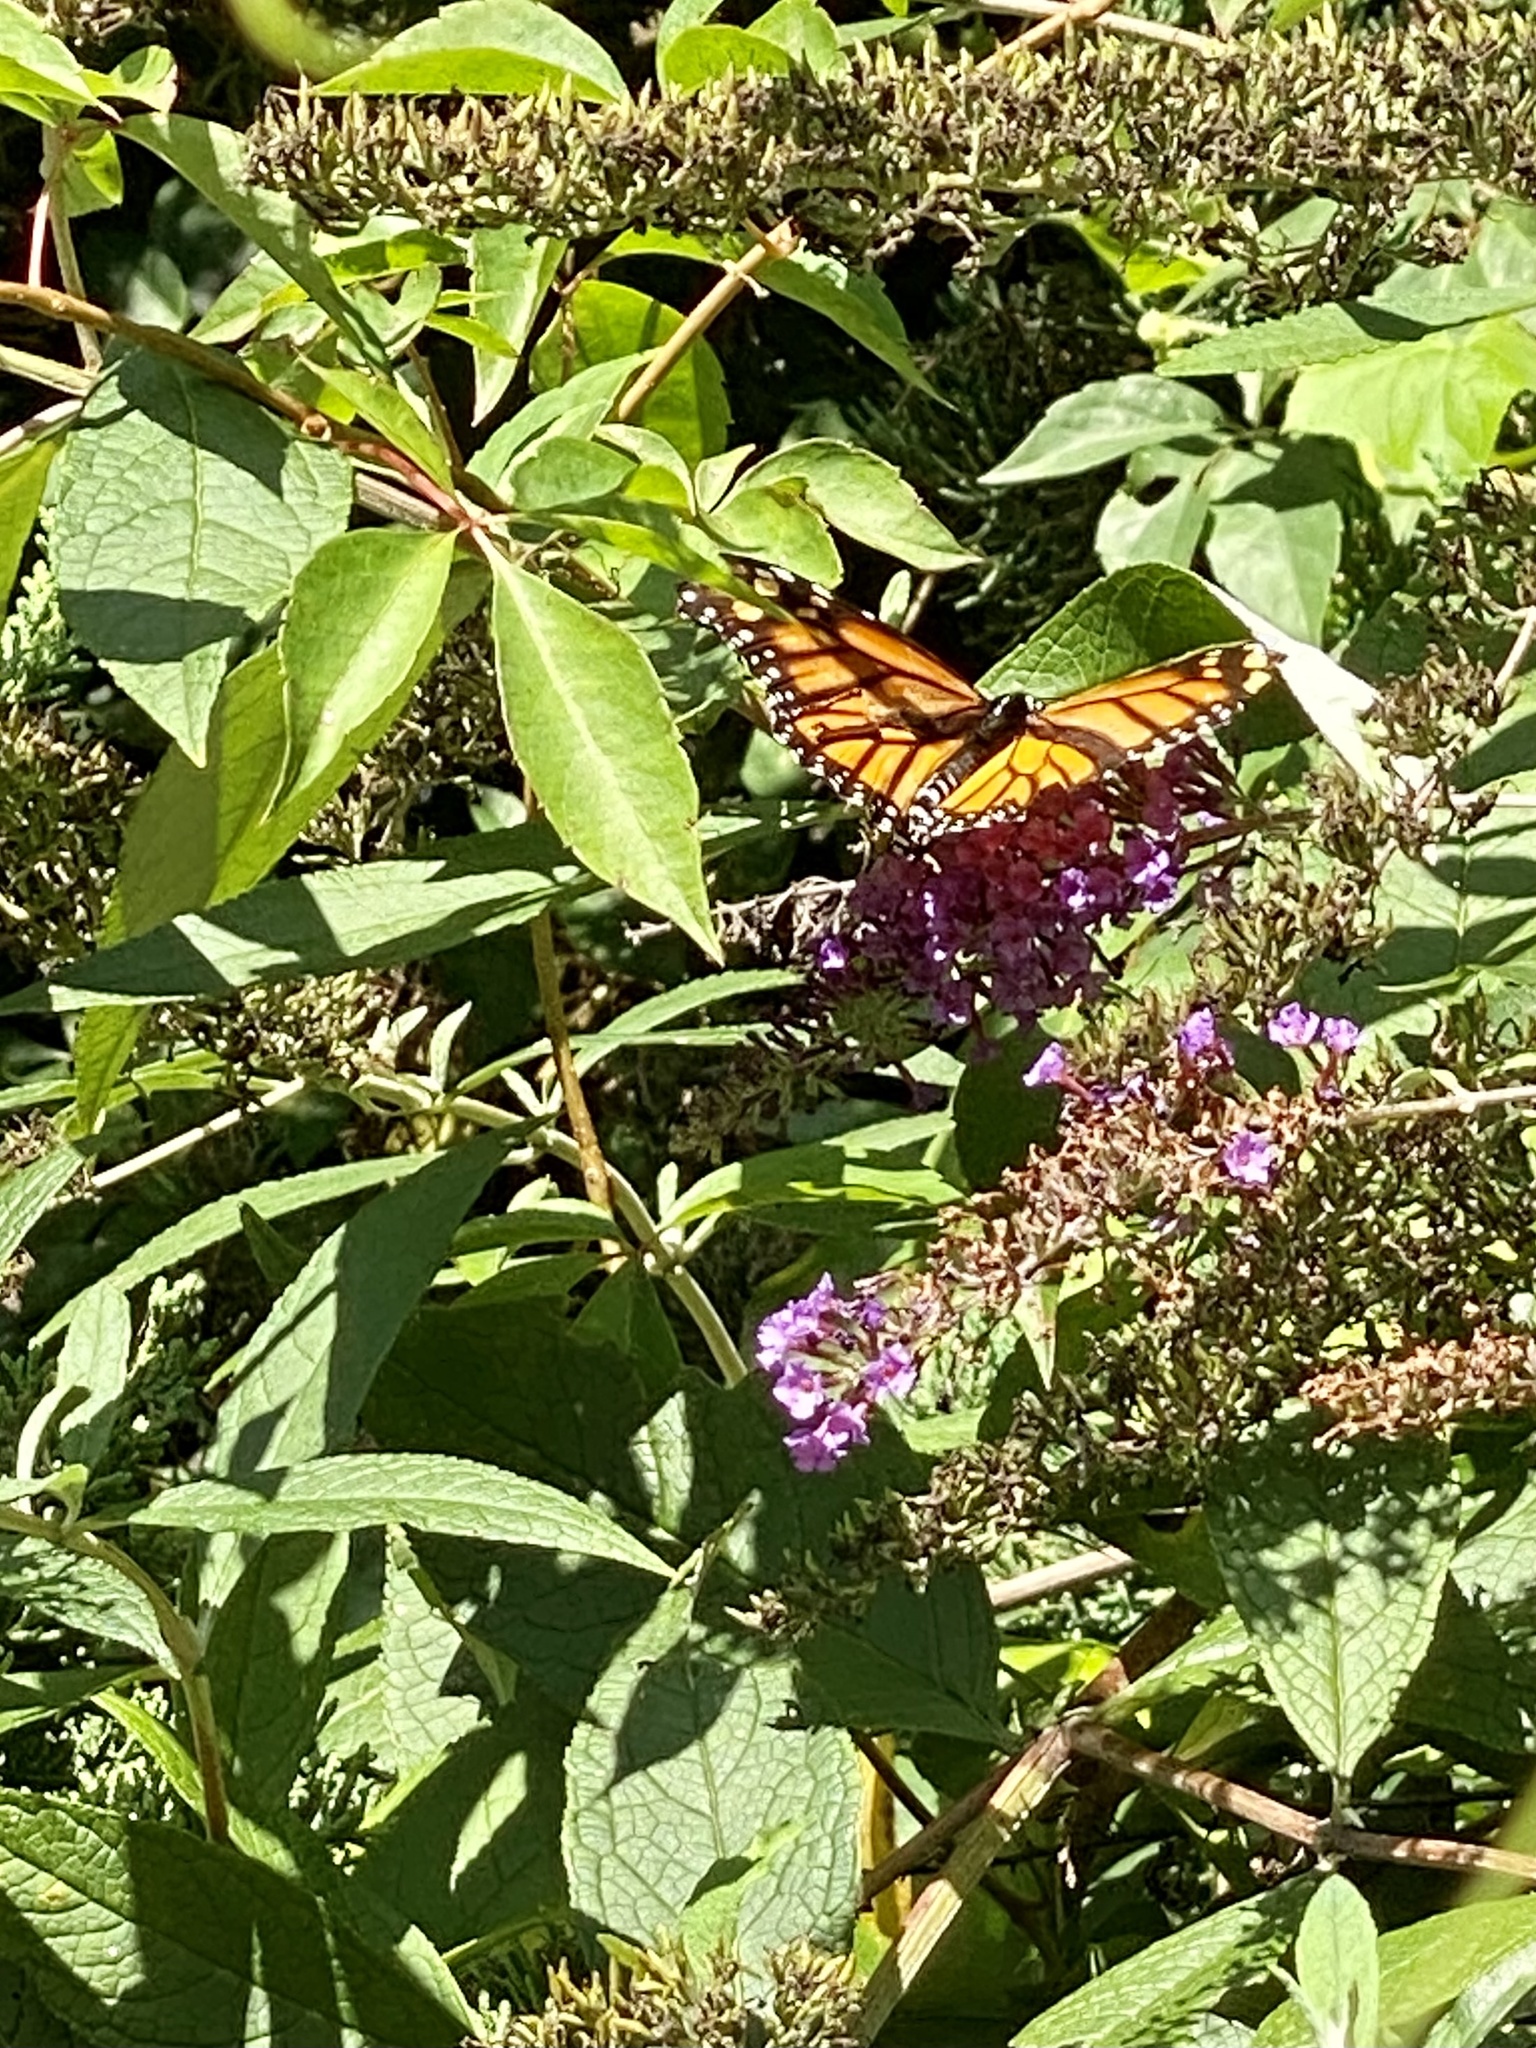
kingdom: Animalia
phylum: Arthropoda
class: Insecta
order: Lepidoptera
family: Nymphalidae
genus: Danaus
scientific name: Danaus plexippus
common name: Monarch
